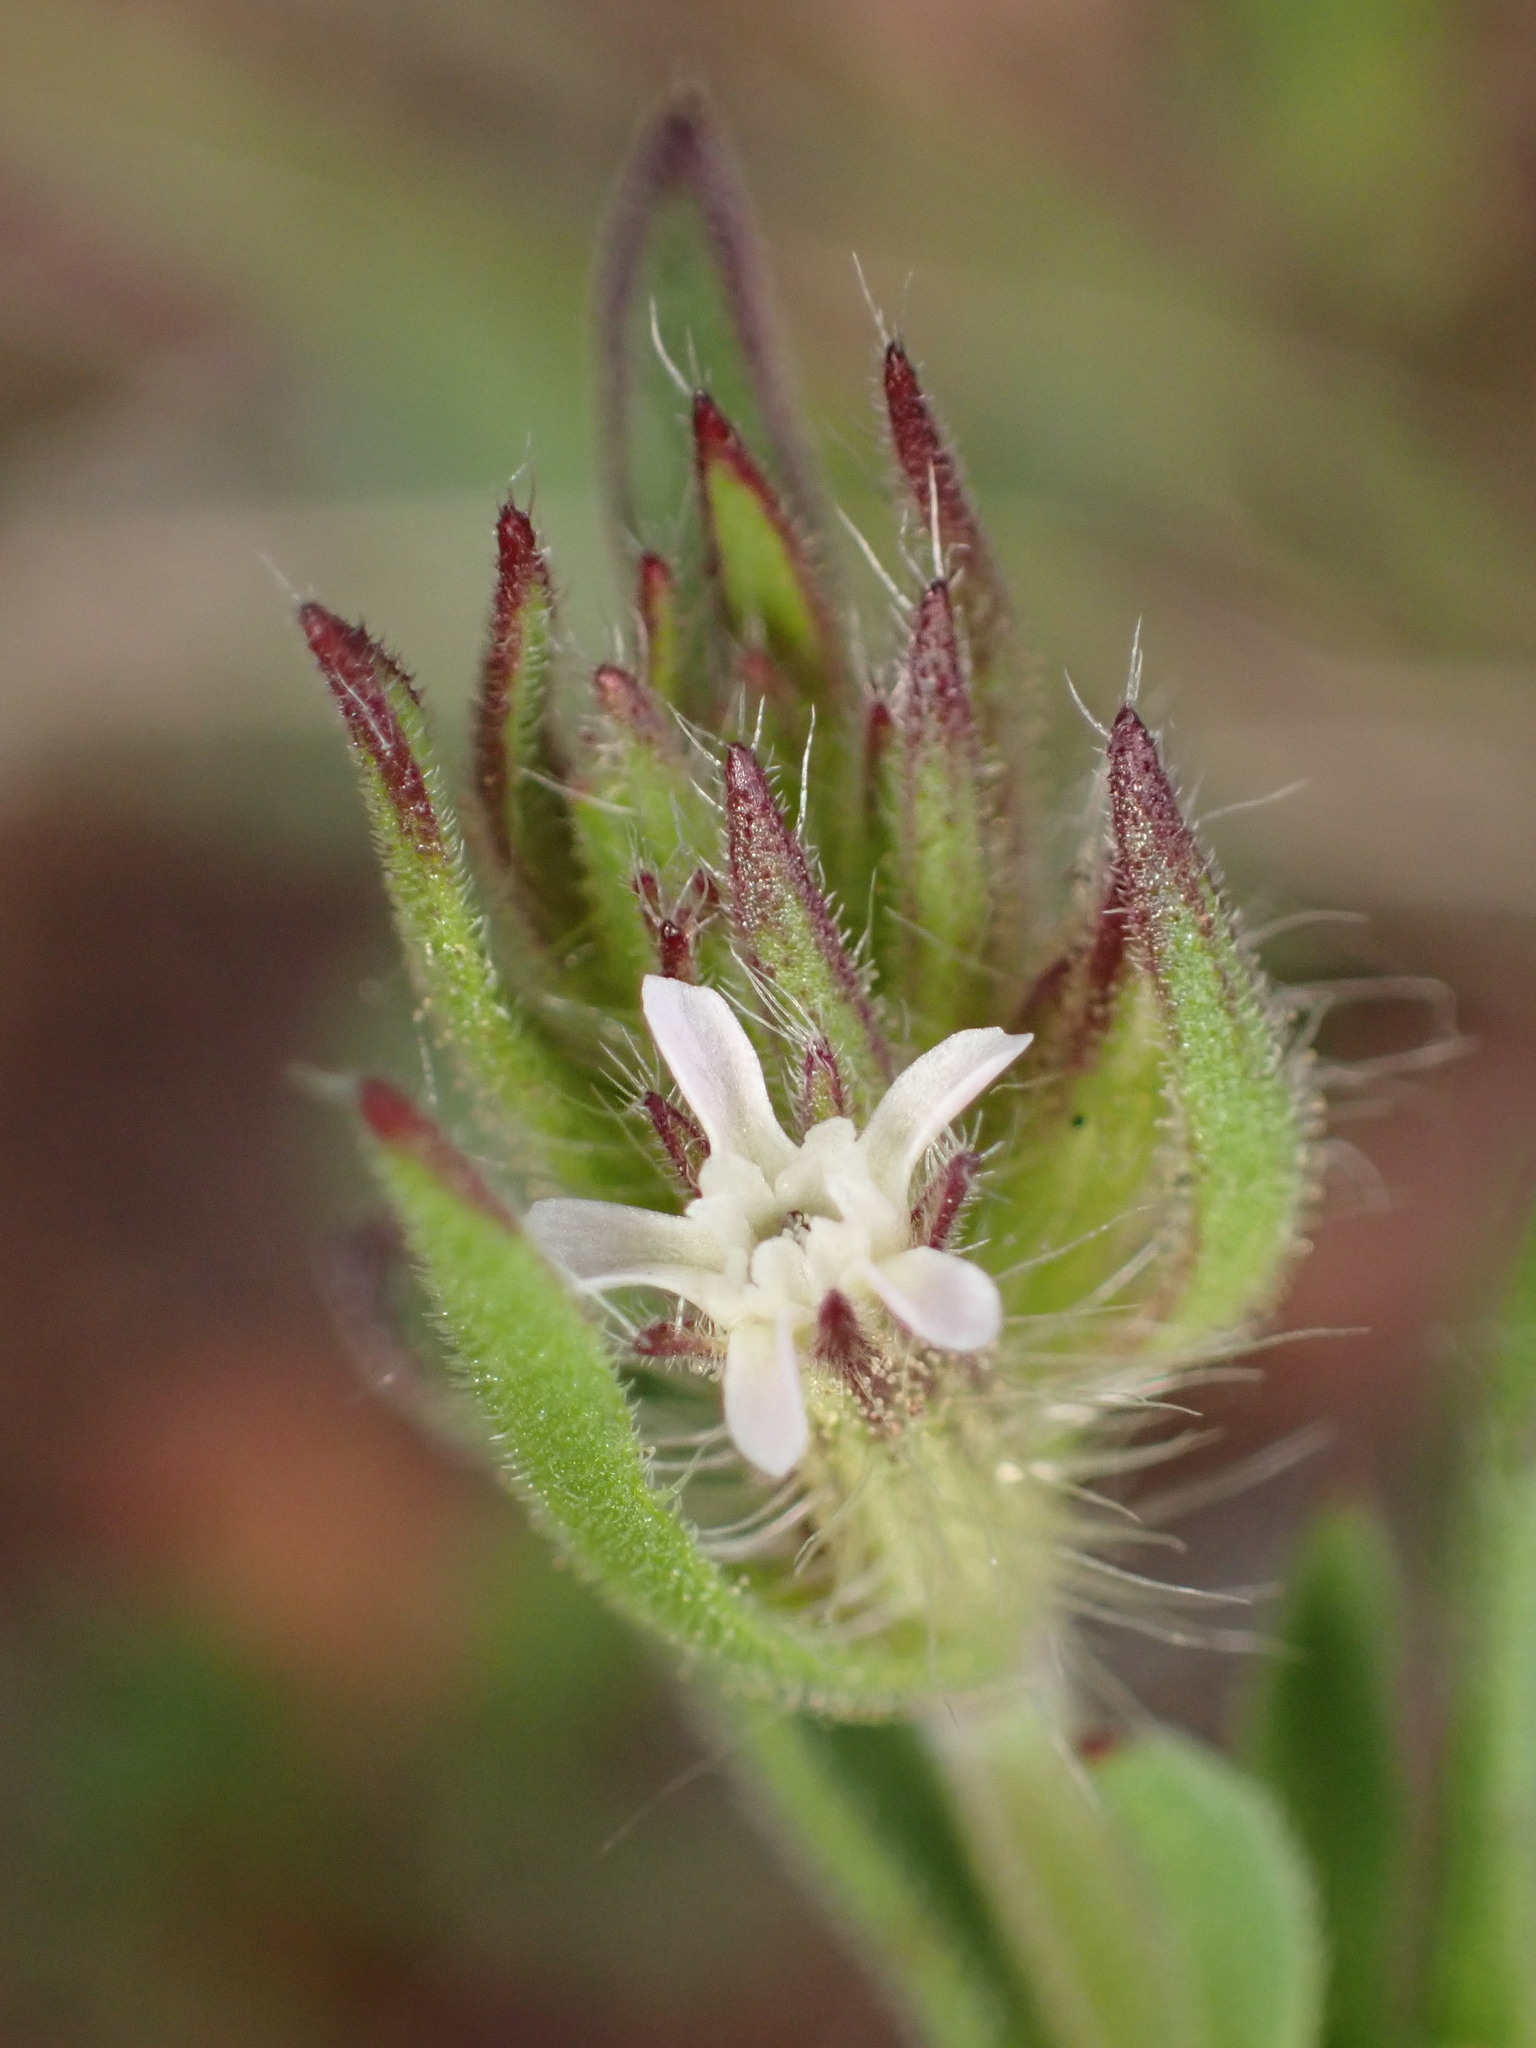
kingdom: Plantae
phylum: Tracheophyta
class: Magnoliopsida
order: Caryophyllales
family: Caryophyllaceae
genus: Silene
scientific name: Silene gallica
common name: Small-flowered catchfly
